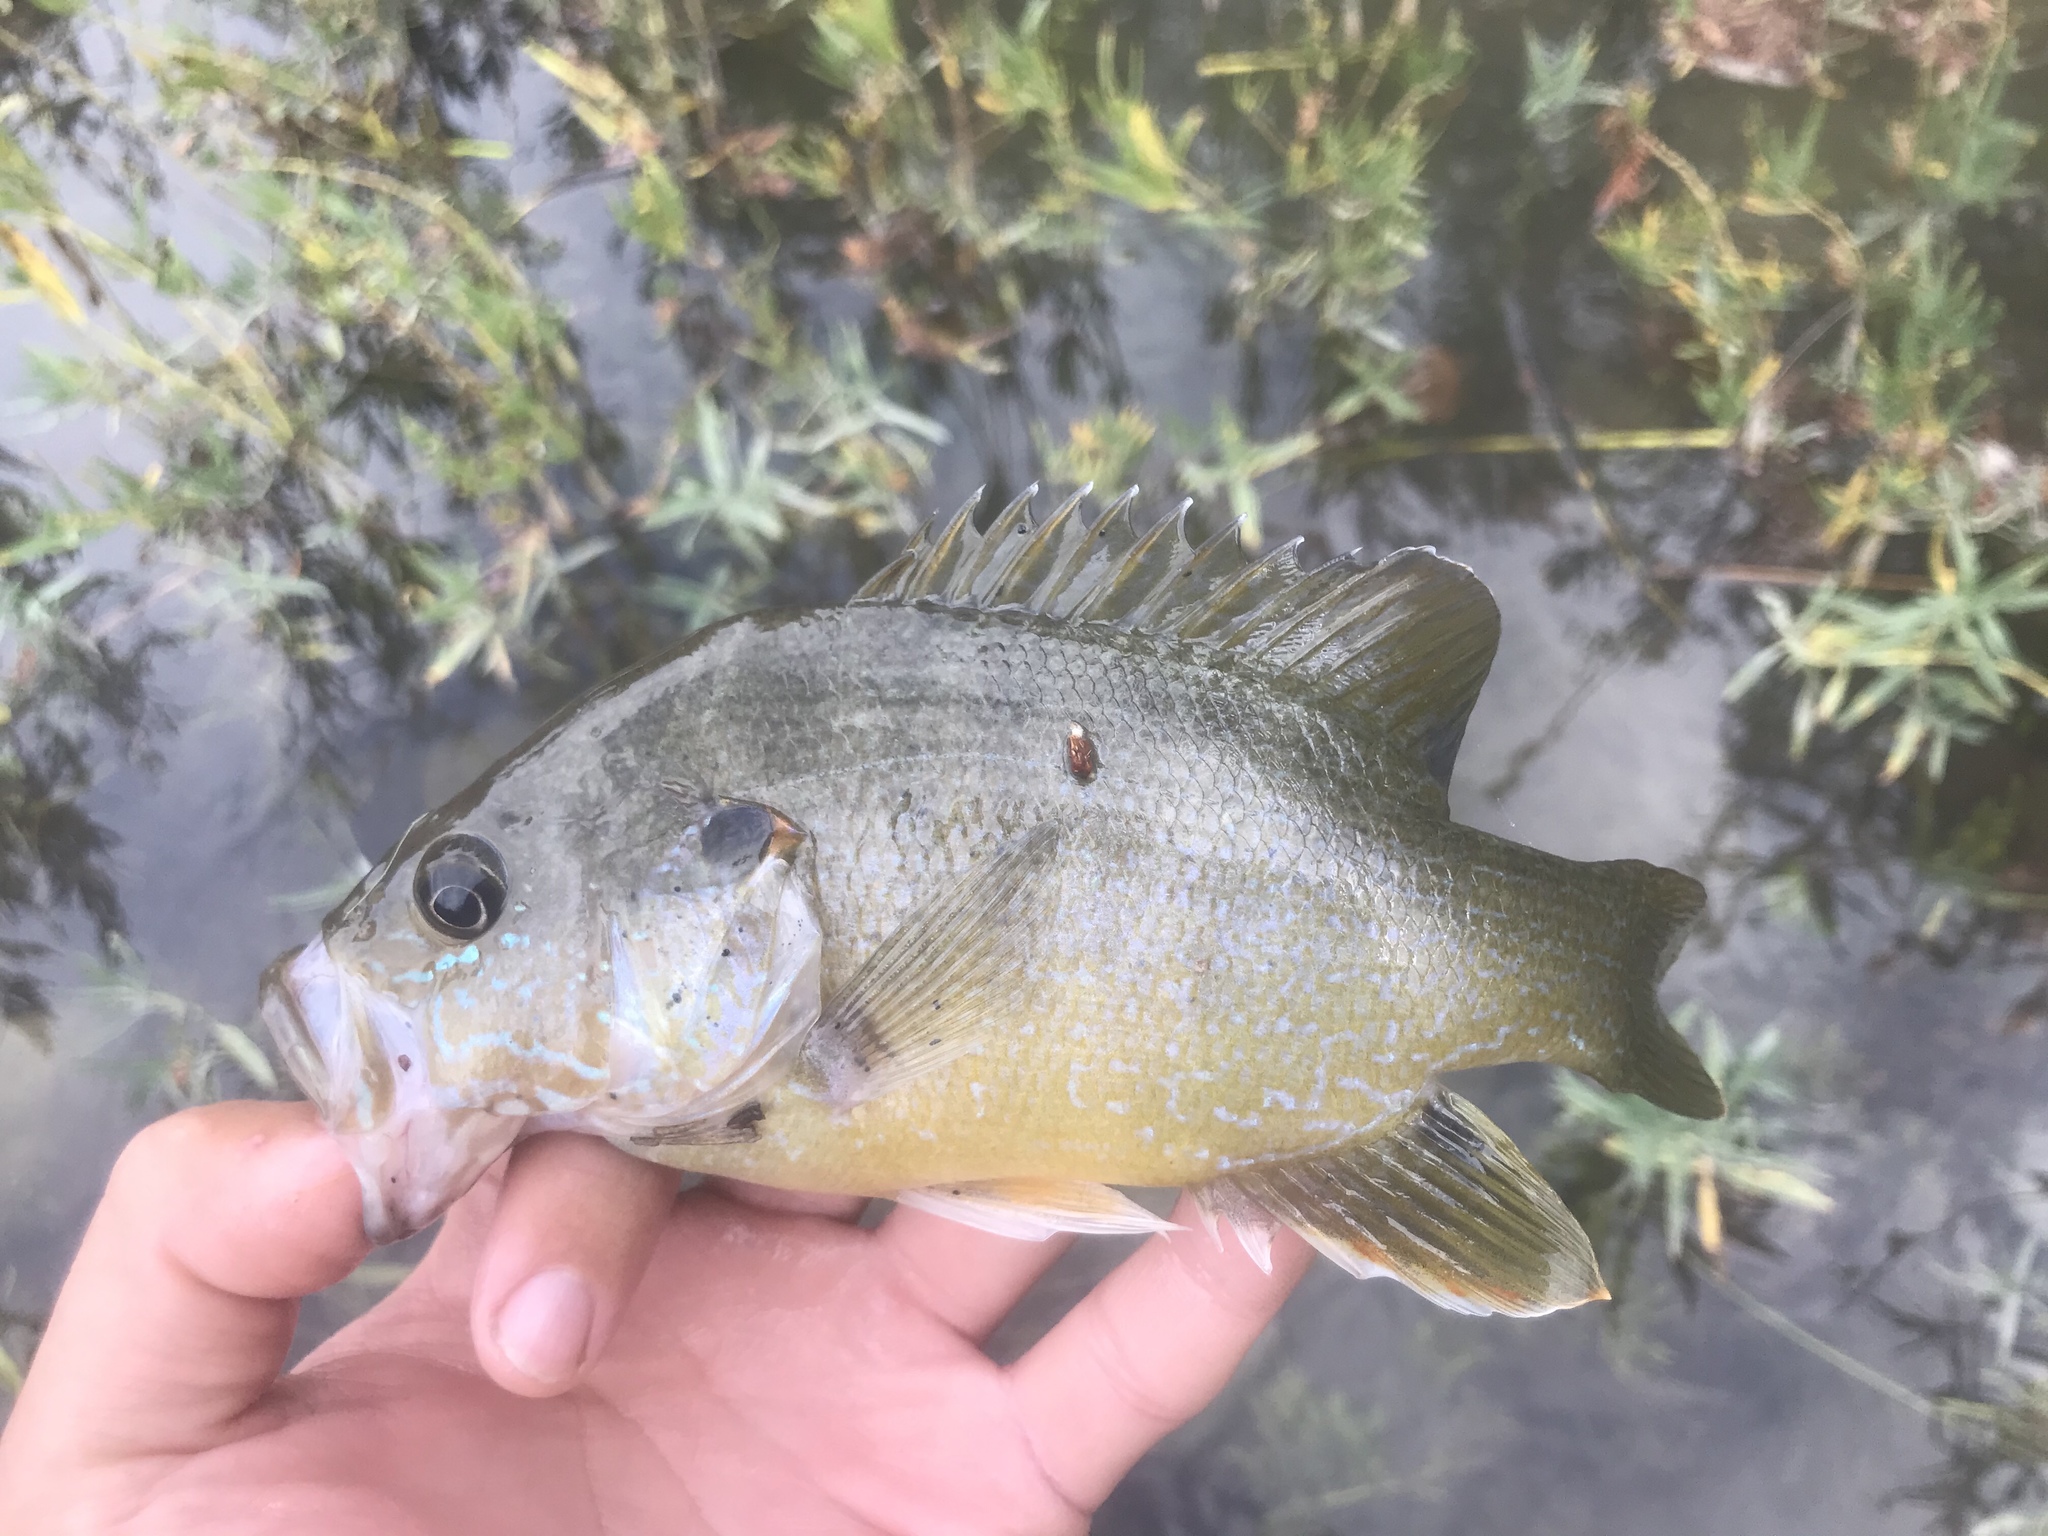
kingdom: Animalia
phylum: Chordata
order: Perciformes
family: Centrarchidae
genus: Lepomis
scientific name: Lepomis cyanellus
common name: Green sunfish
